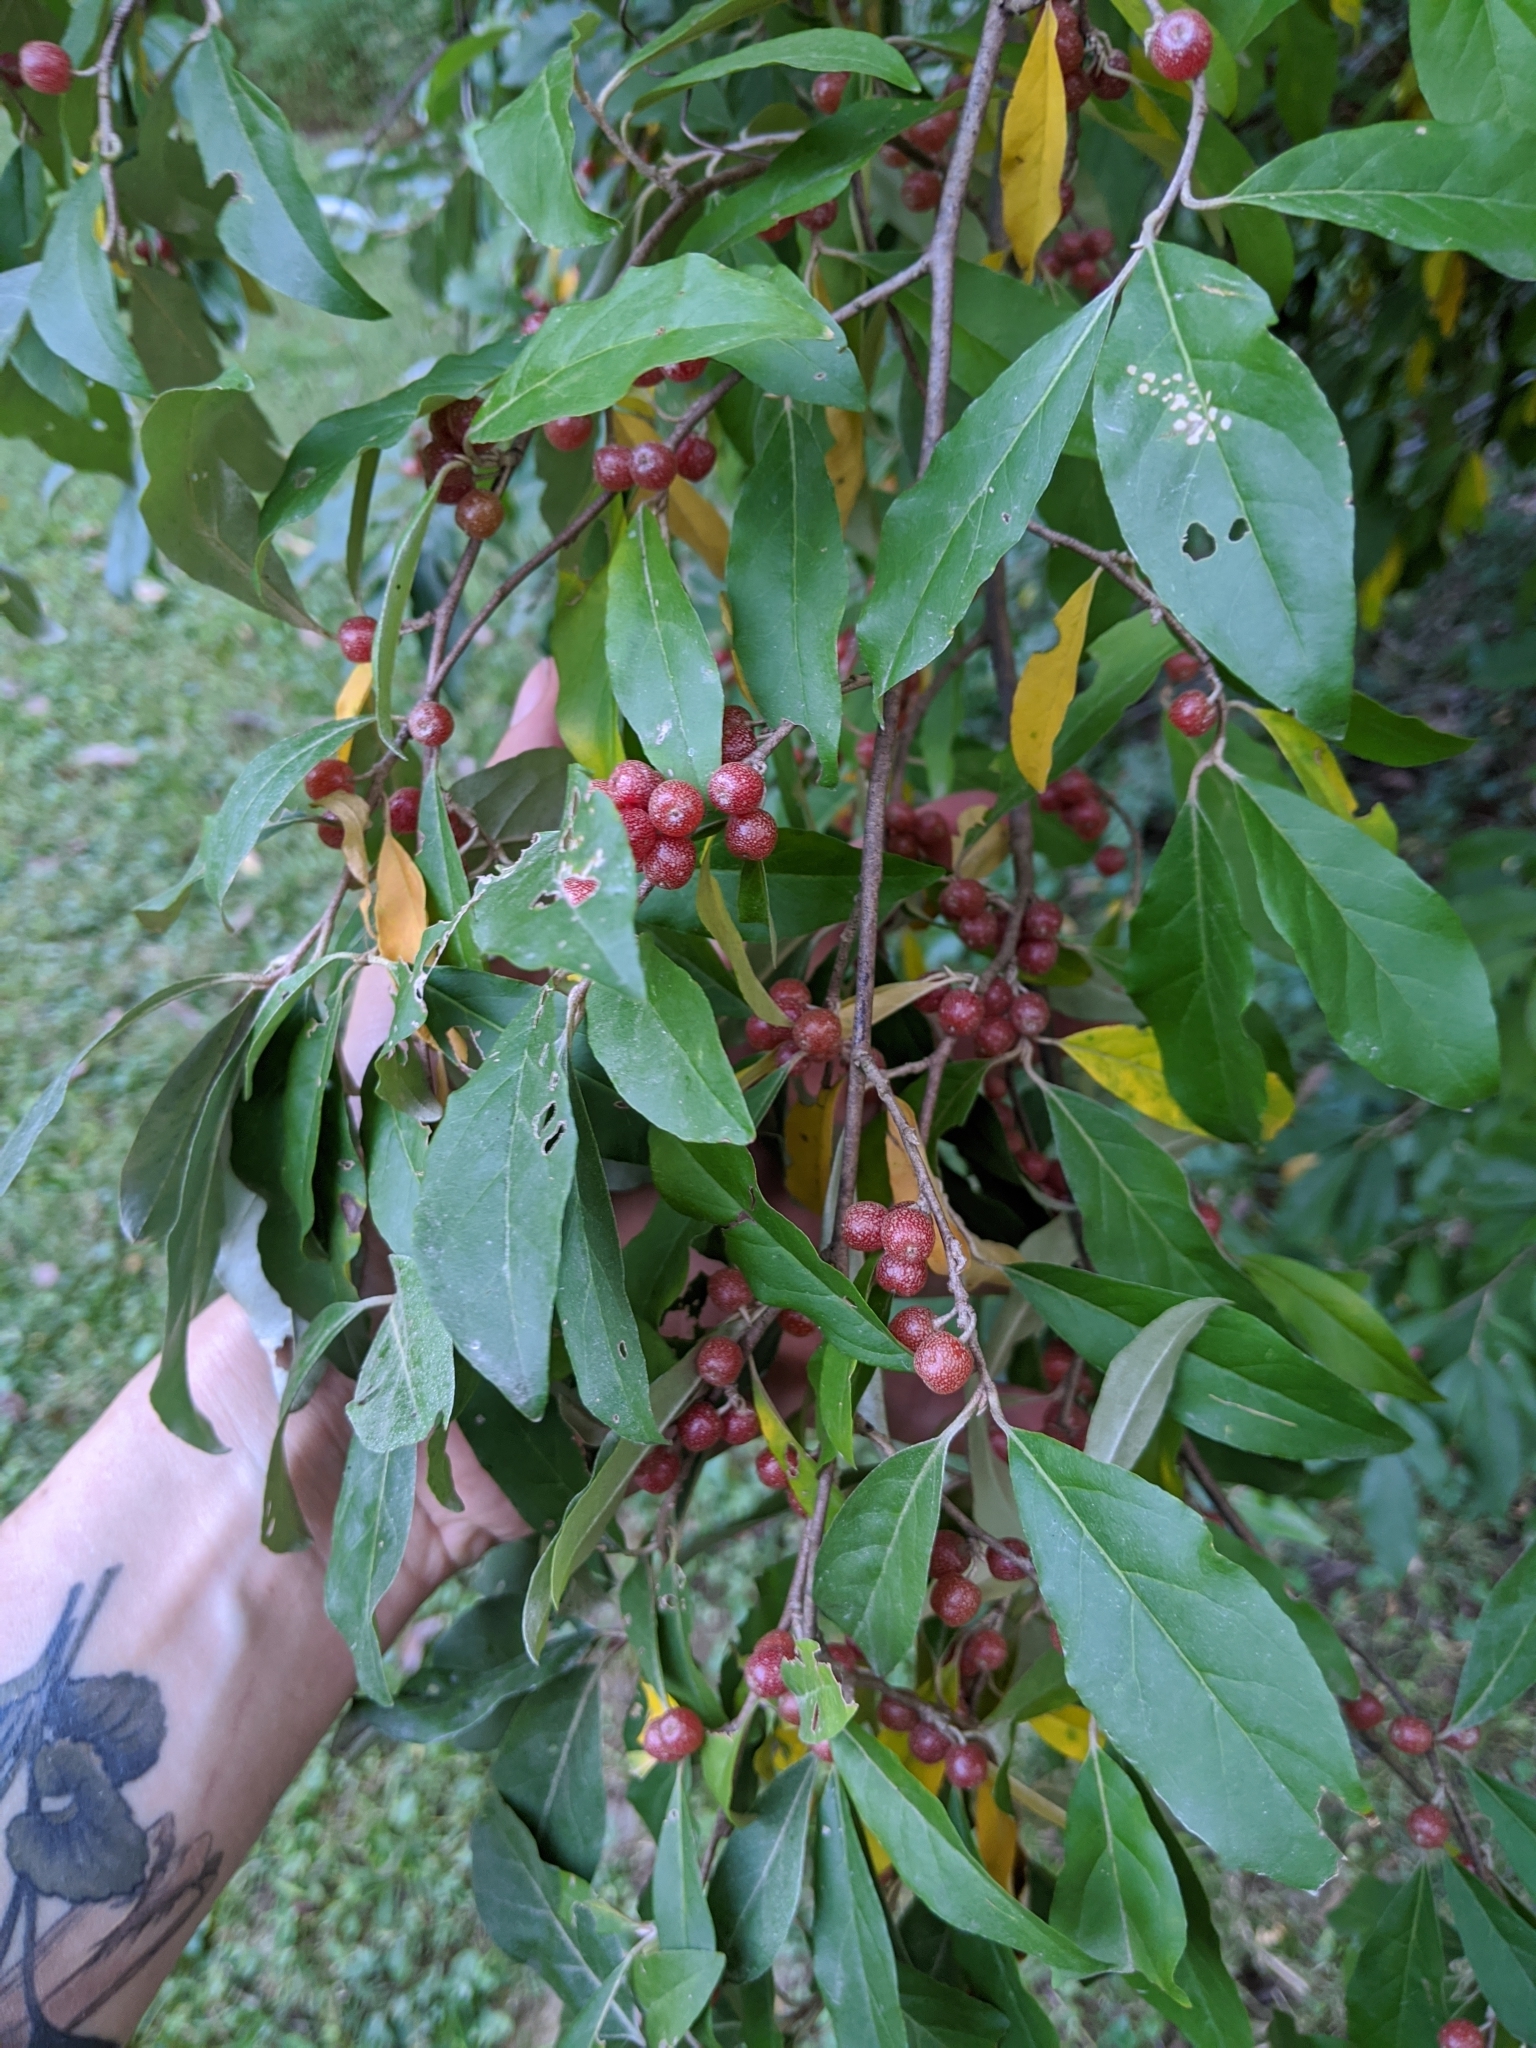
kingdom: Plantae
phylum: Tracheophyta
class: Magnoliopsida
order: Rosales
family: Elaeagnaceae
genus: Elaeagnus
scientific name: Elaeagnus umbellata
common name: Autumn olive
